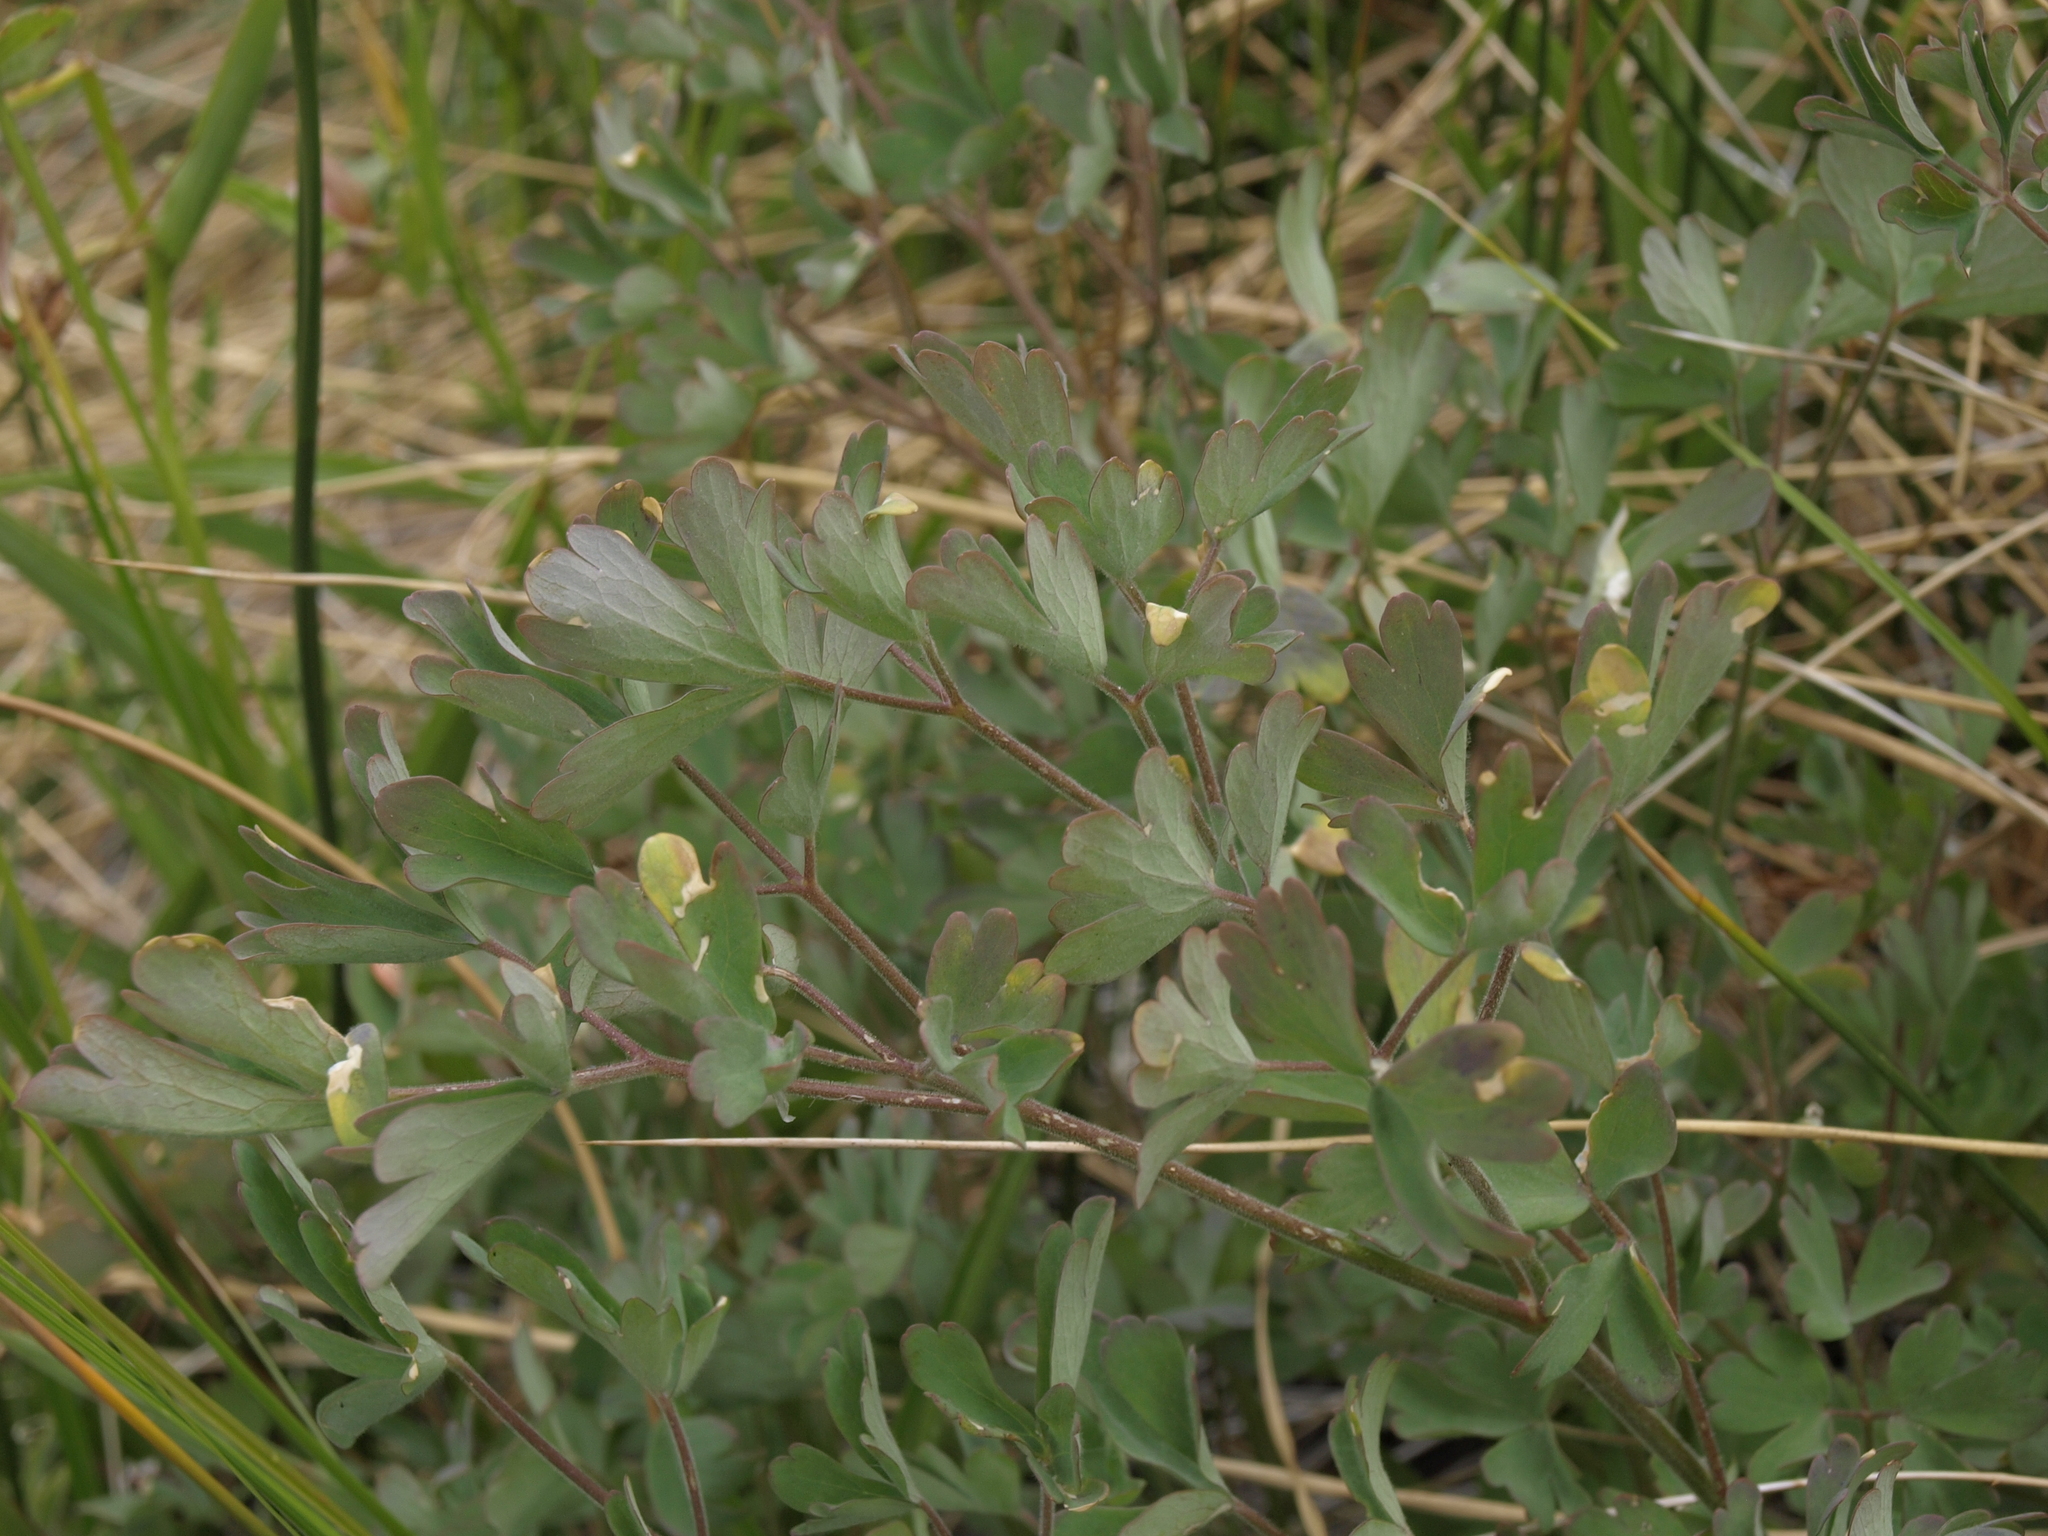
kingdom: Plantae
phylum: Tracheophyta
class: Magnoliopsida
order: Ranunculales
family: Ranunculaceae
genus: Aquilegia
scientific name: Aquilegia formosa
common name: Sitka columbine
